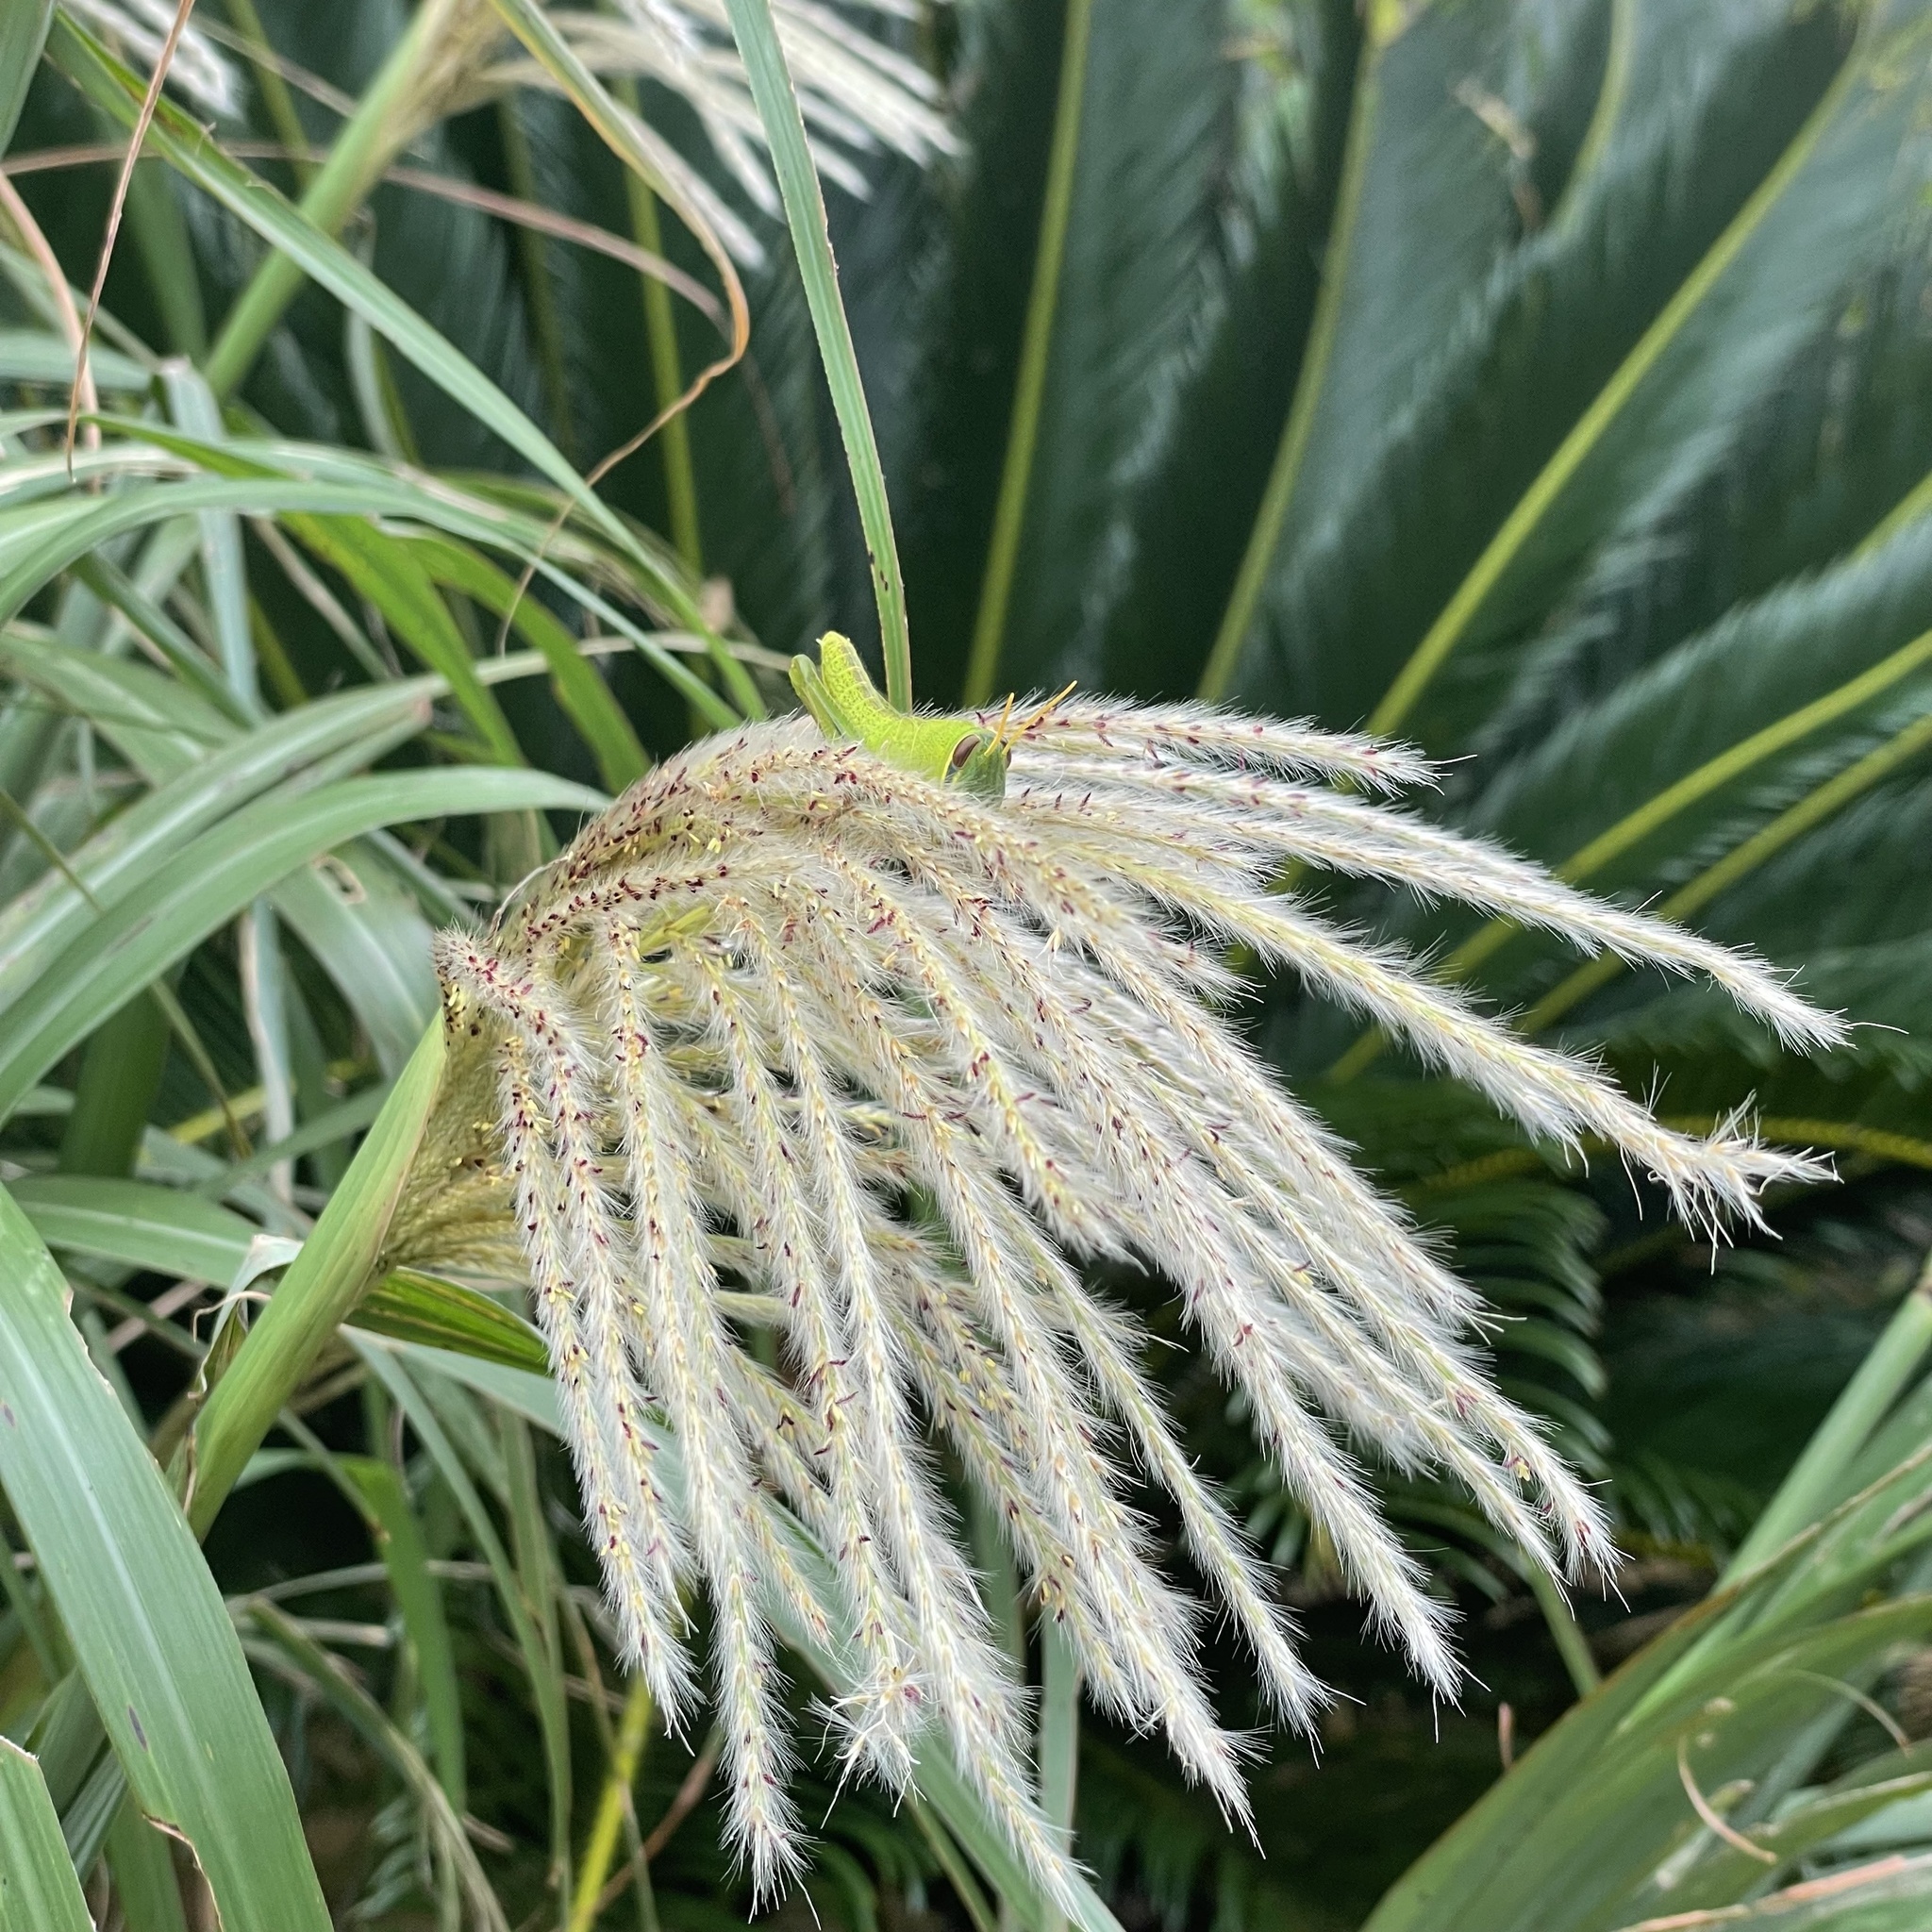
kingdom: Animalia
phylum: Arthropoda
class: Insecta
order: Orthoptera
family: Acrididae
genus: Patanga
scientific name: Patanga japonica
